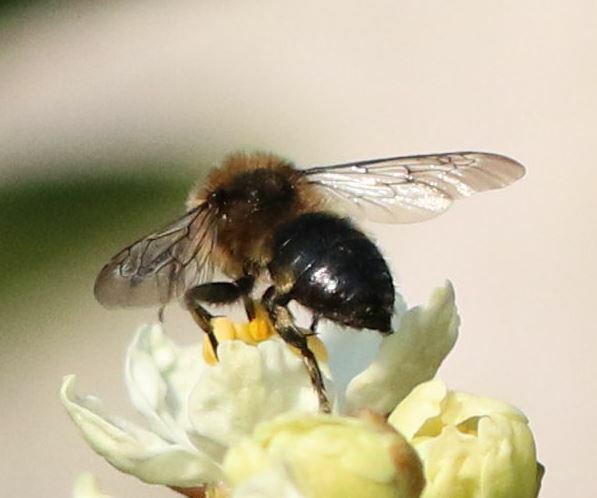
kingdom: Animalia
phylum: Arthropoda
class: Insecta
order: Hymenoptera
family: Apidae
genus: Melecta
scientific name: Melecta albifrons
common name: Common mourning bee
